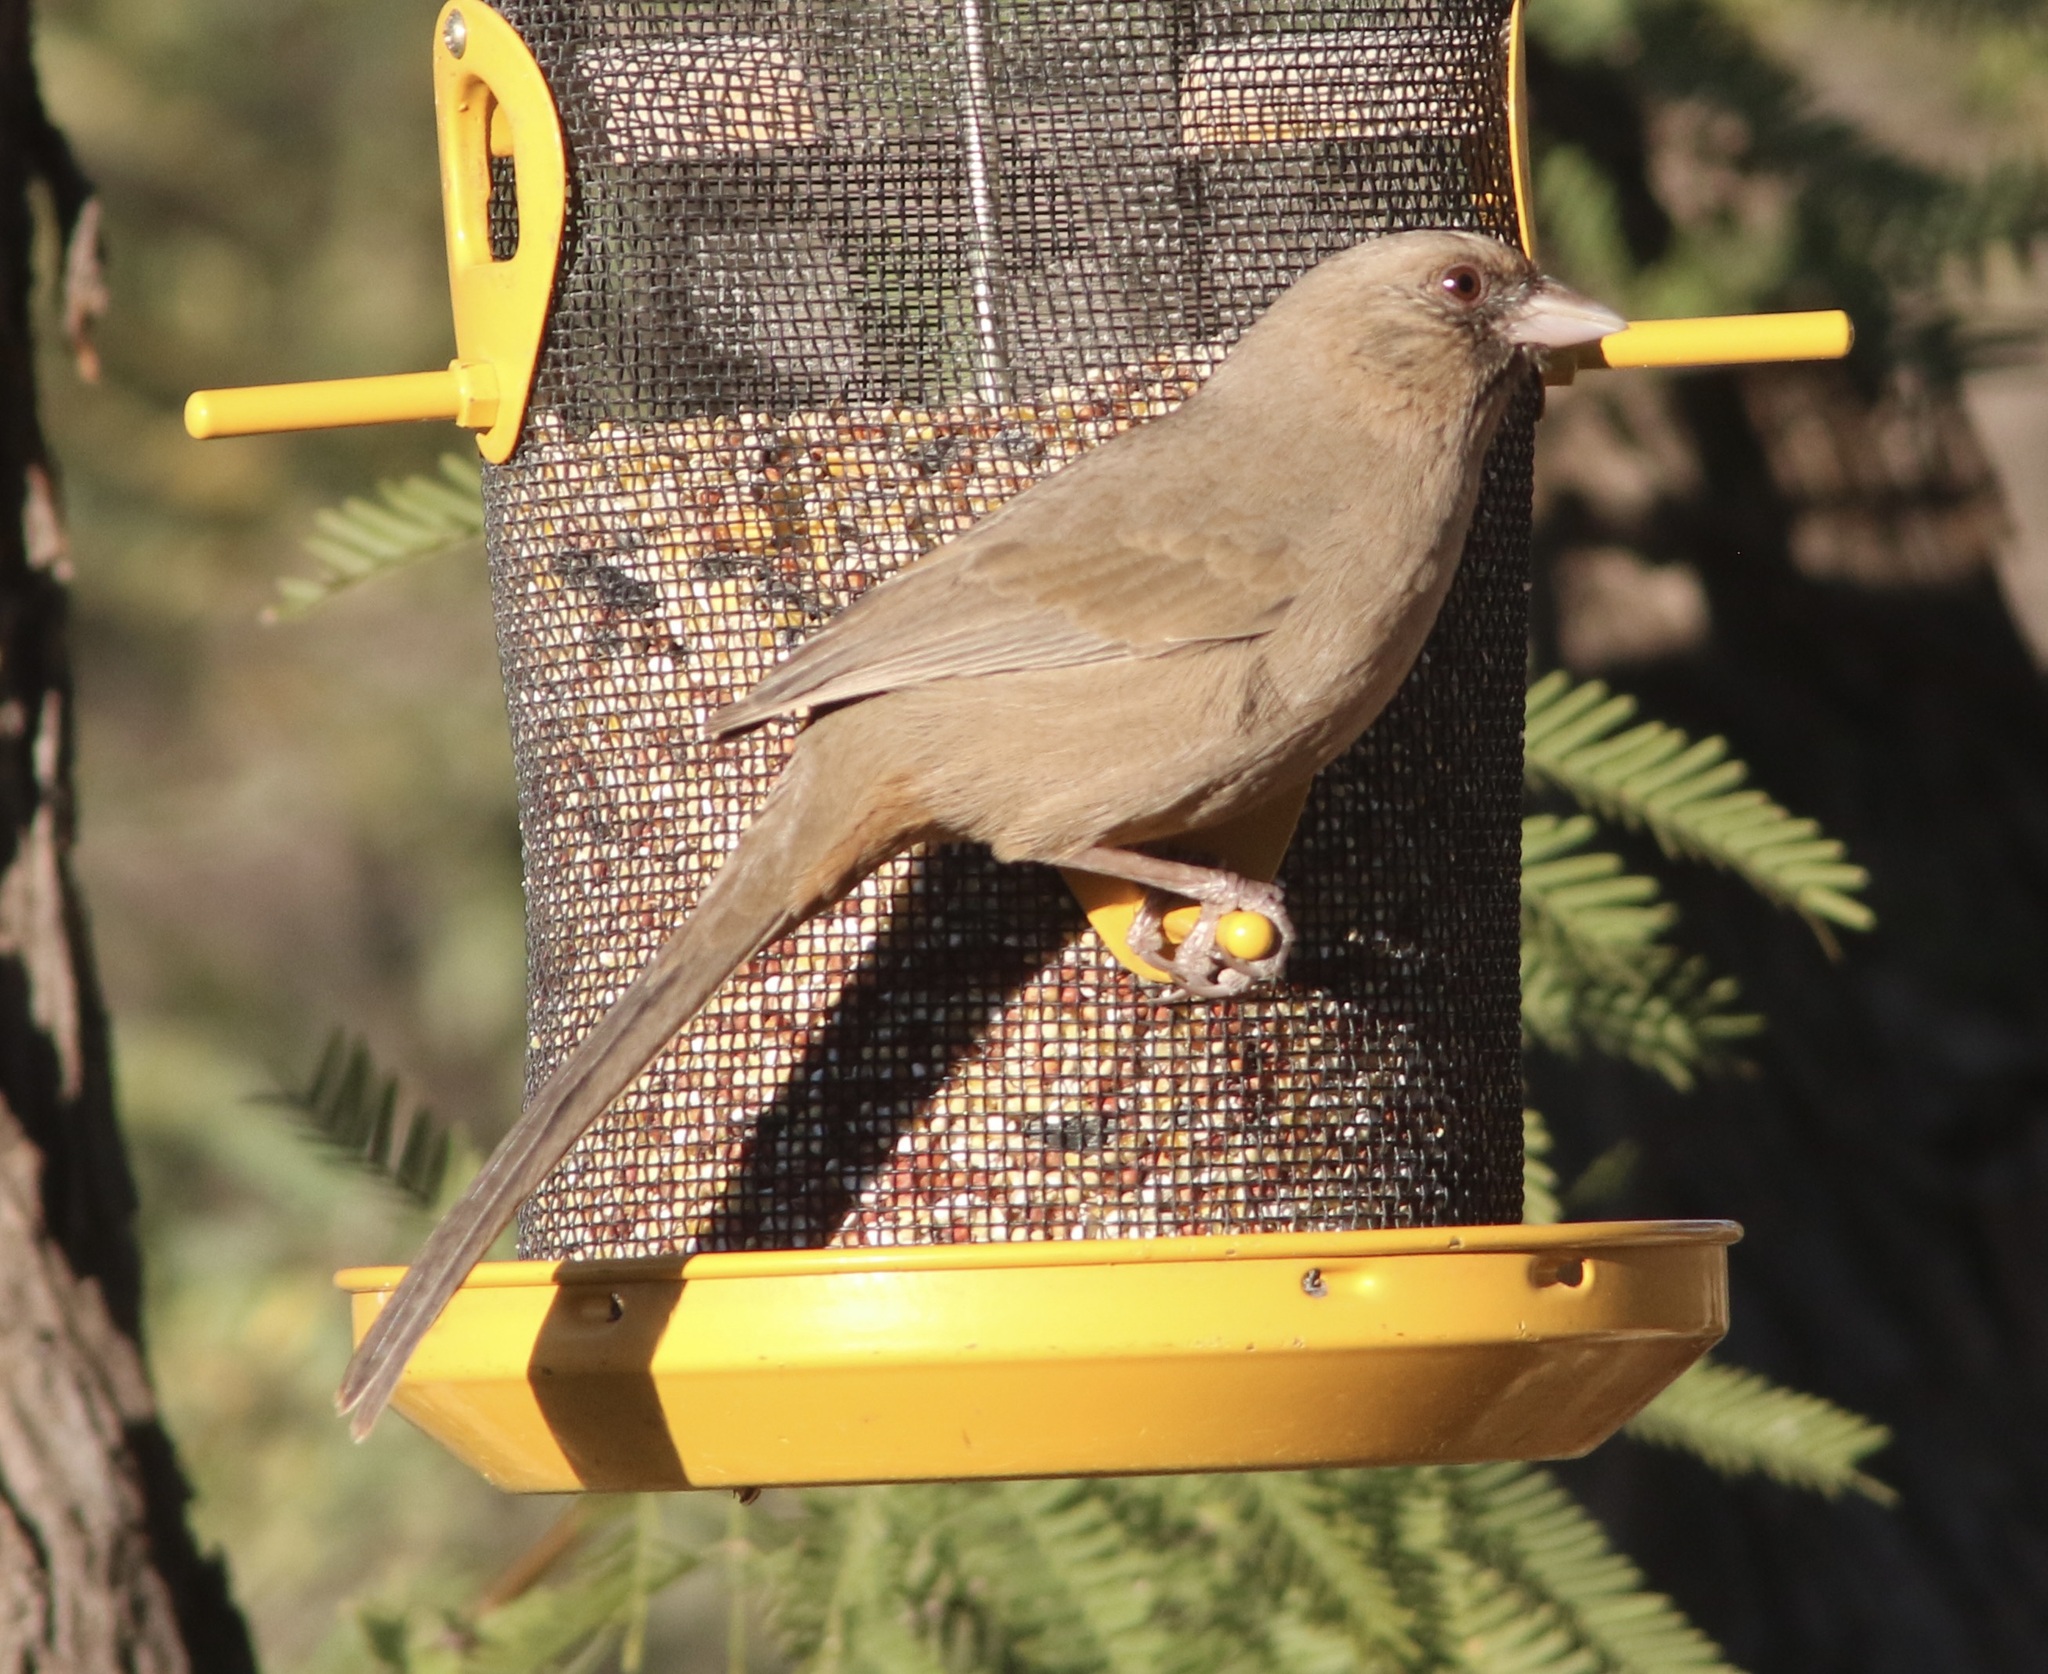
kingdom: Animalia
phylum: Chordata
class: Aves
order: Passeriformes
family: Passerellidae
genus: Melozone
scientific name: Melozone aberti
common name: Abert's towhee
